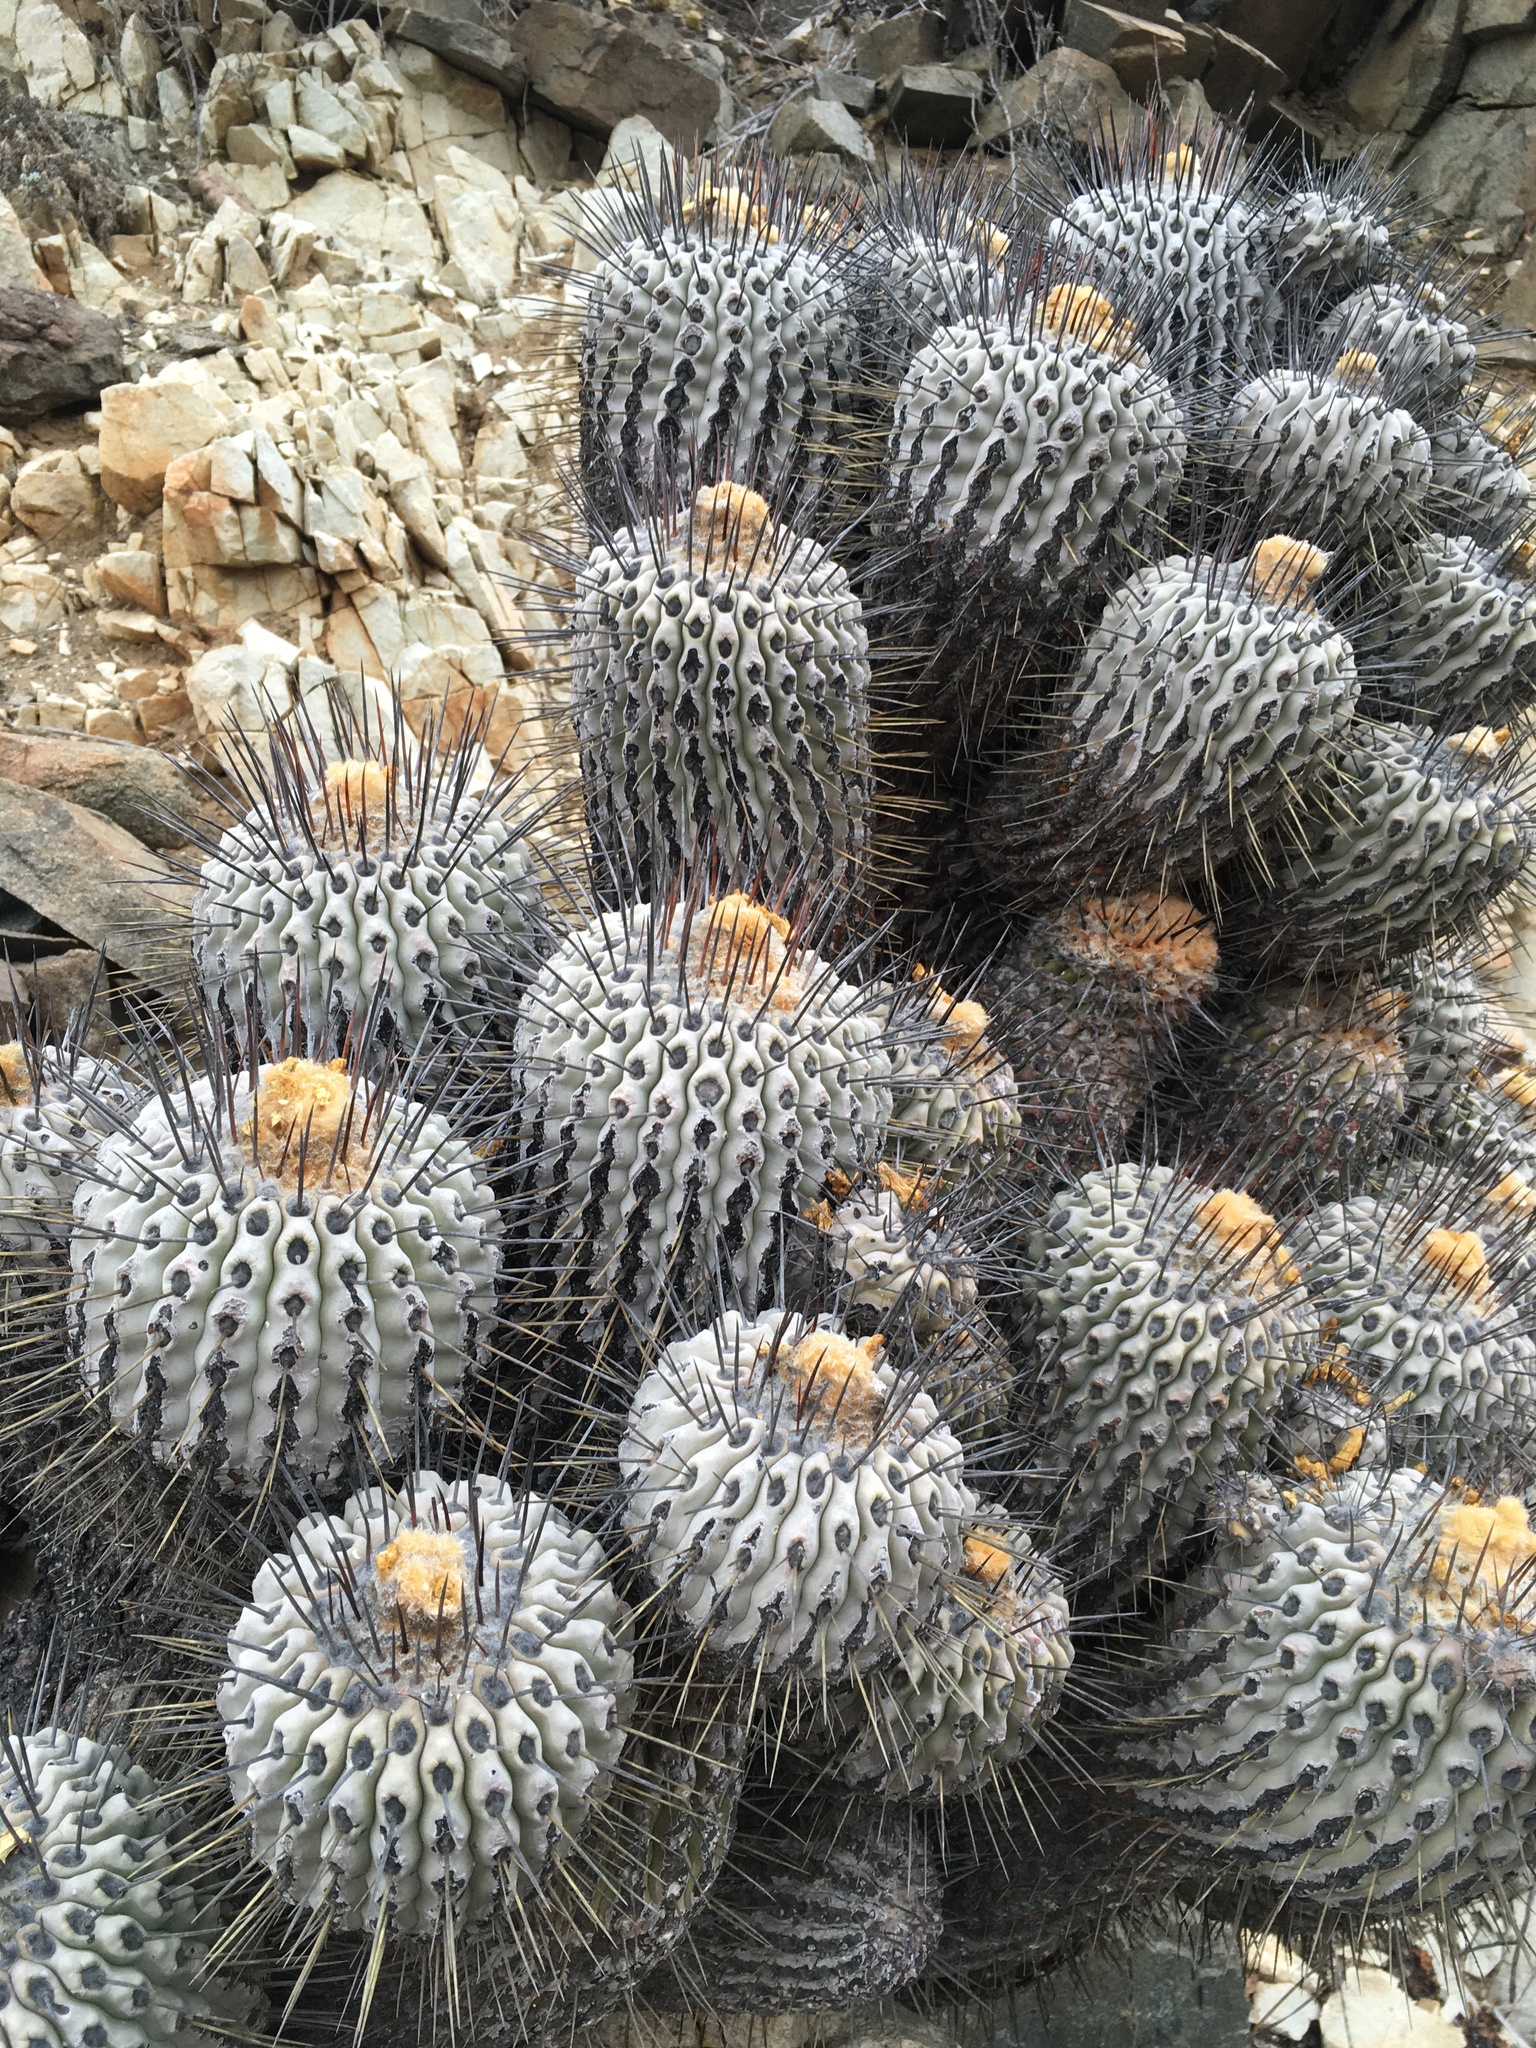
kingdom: Plantae
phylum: Tracheophyta
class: Magnoliopsida
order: Caryophyllales
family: Cactaceae
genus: Copiapoa
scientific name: Copiapoa malletiana
